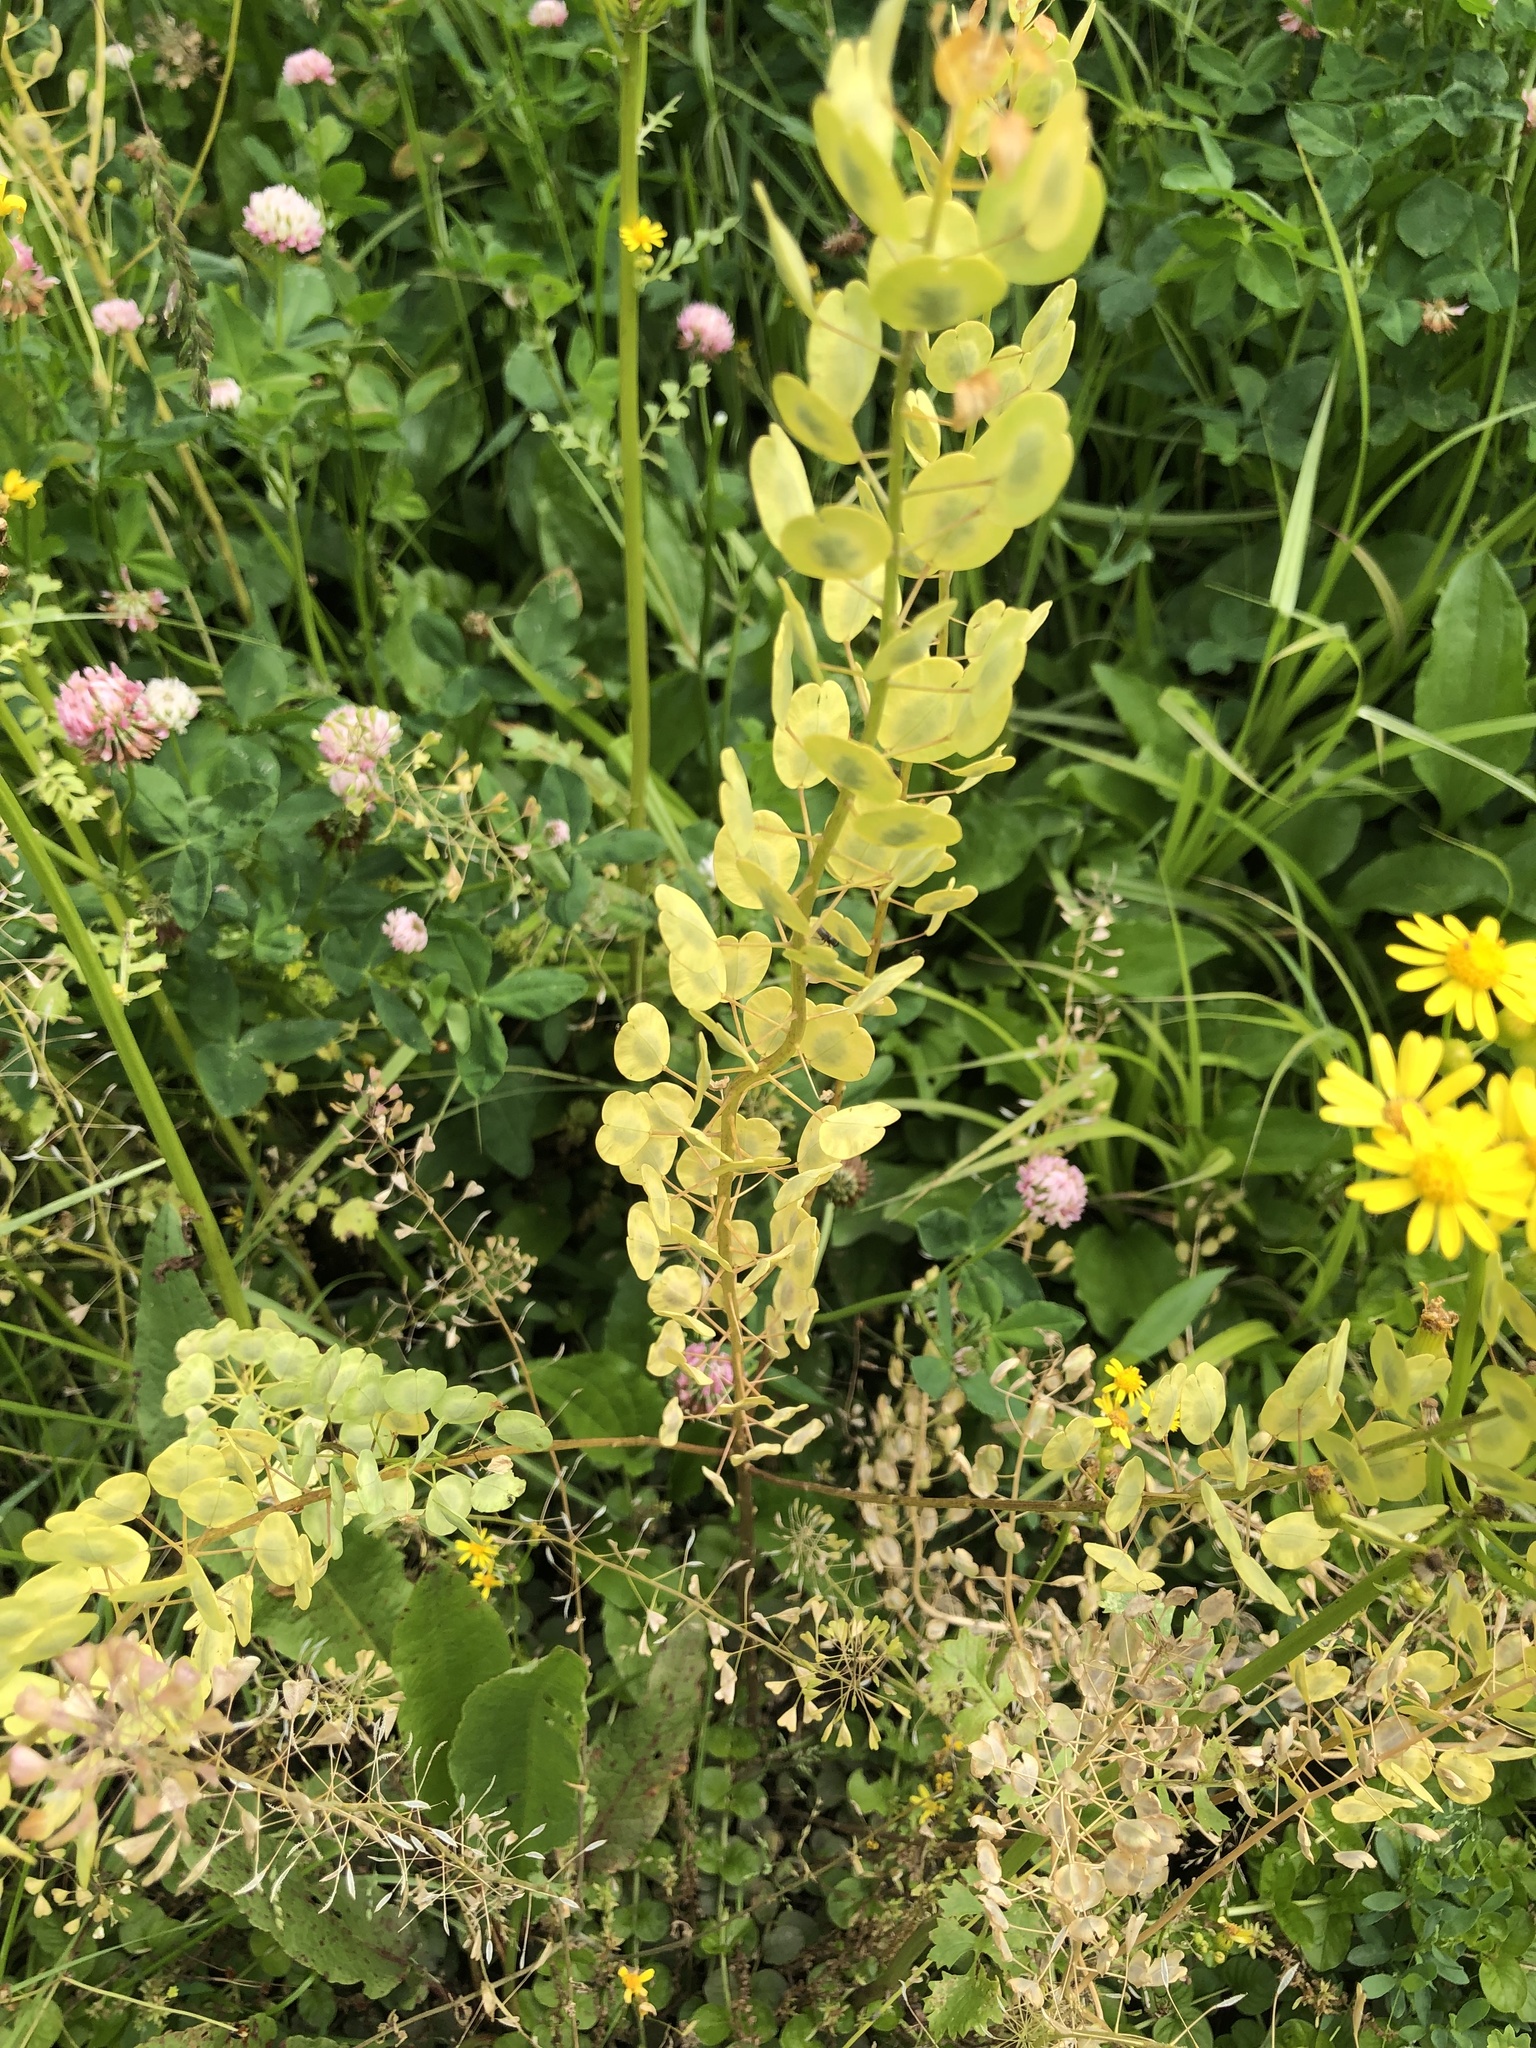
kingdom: Plantae
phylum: Tracheophyta
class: Magnoliopsida
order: Brassicales
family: Brassicaceae
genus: Thlaspi
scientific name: Thlaspi arvense
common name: Field pennycress
